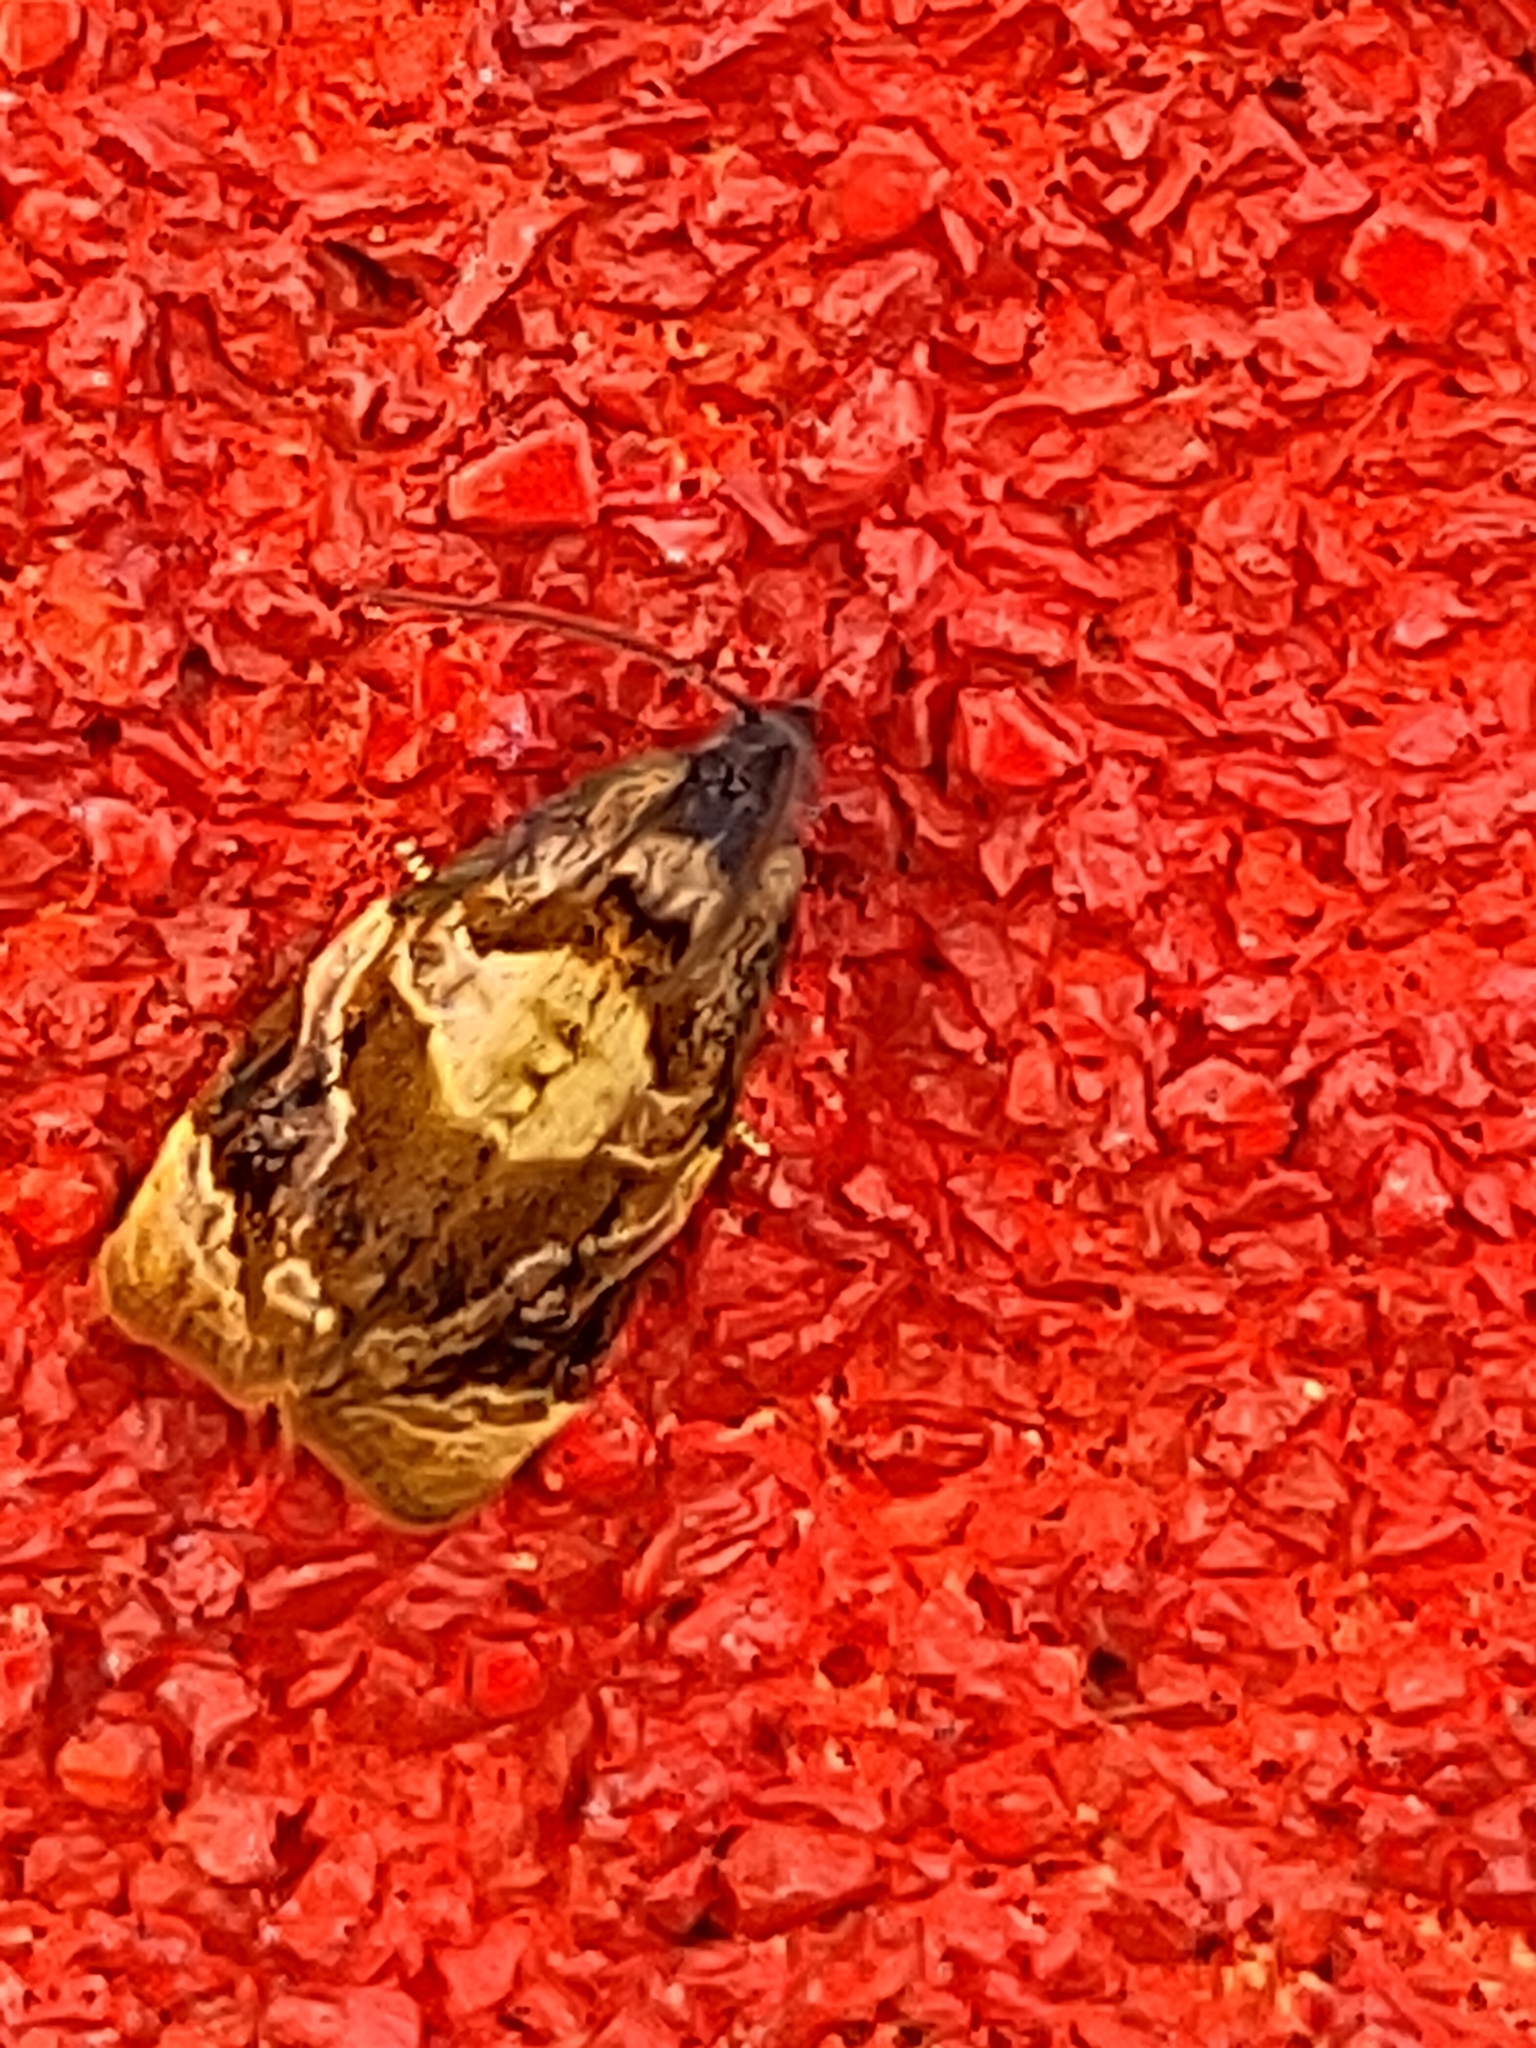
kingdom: Animalia
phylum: Arthropoda
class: Insecta
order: Lepidoptera
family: Tortricidae
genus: Ditula
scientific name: Ditula angustiorana
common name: Red-barred tortrix
